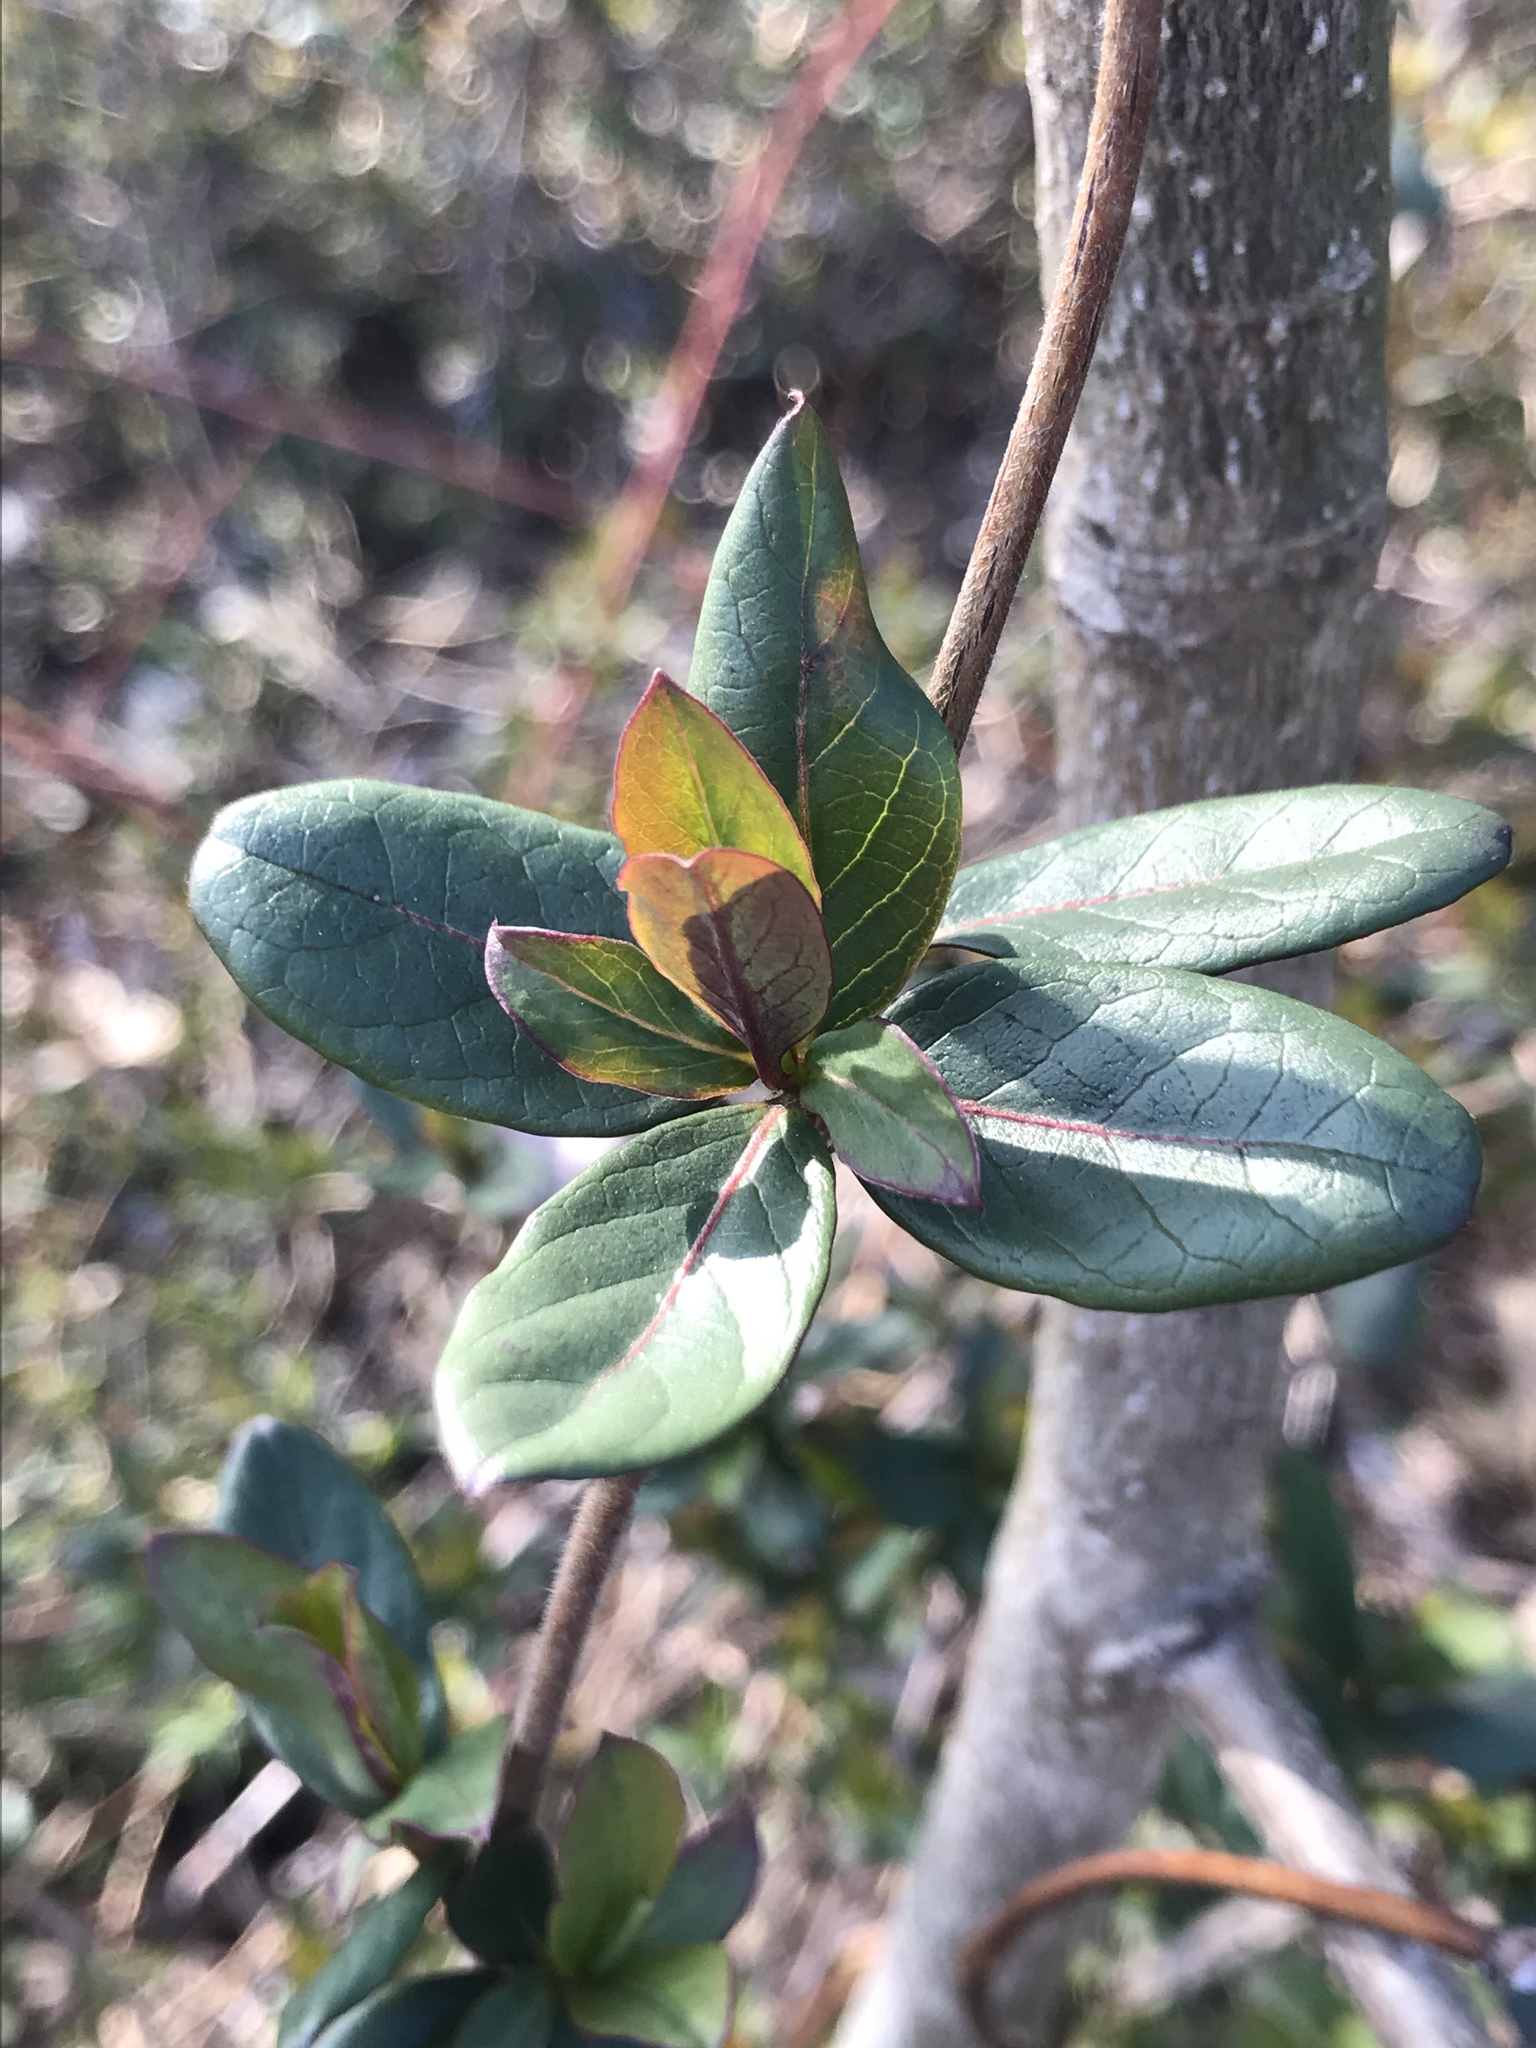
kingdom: Plantae
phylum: Tracheophyta
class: Magnoliopsida
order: Dipsacales
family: Caprifoliaceae
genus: Lonicera
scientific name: Lonicera japonica
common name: Japanese honeysuckle
